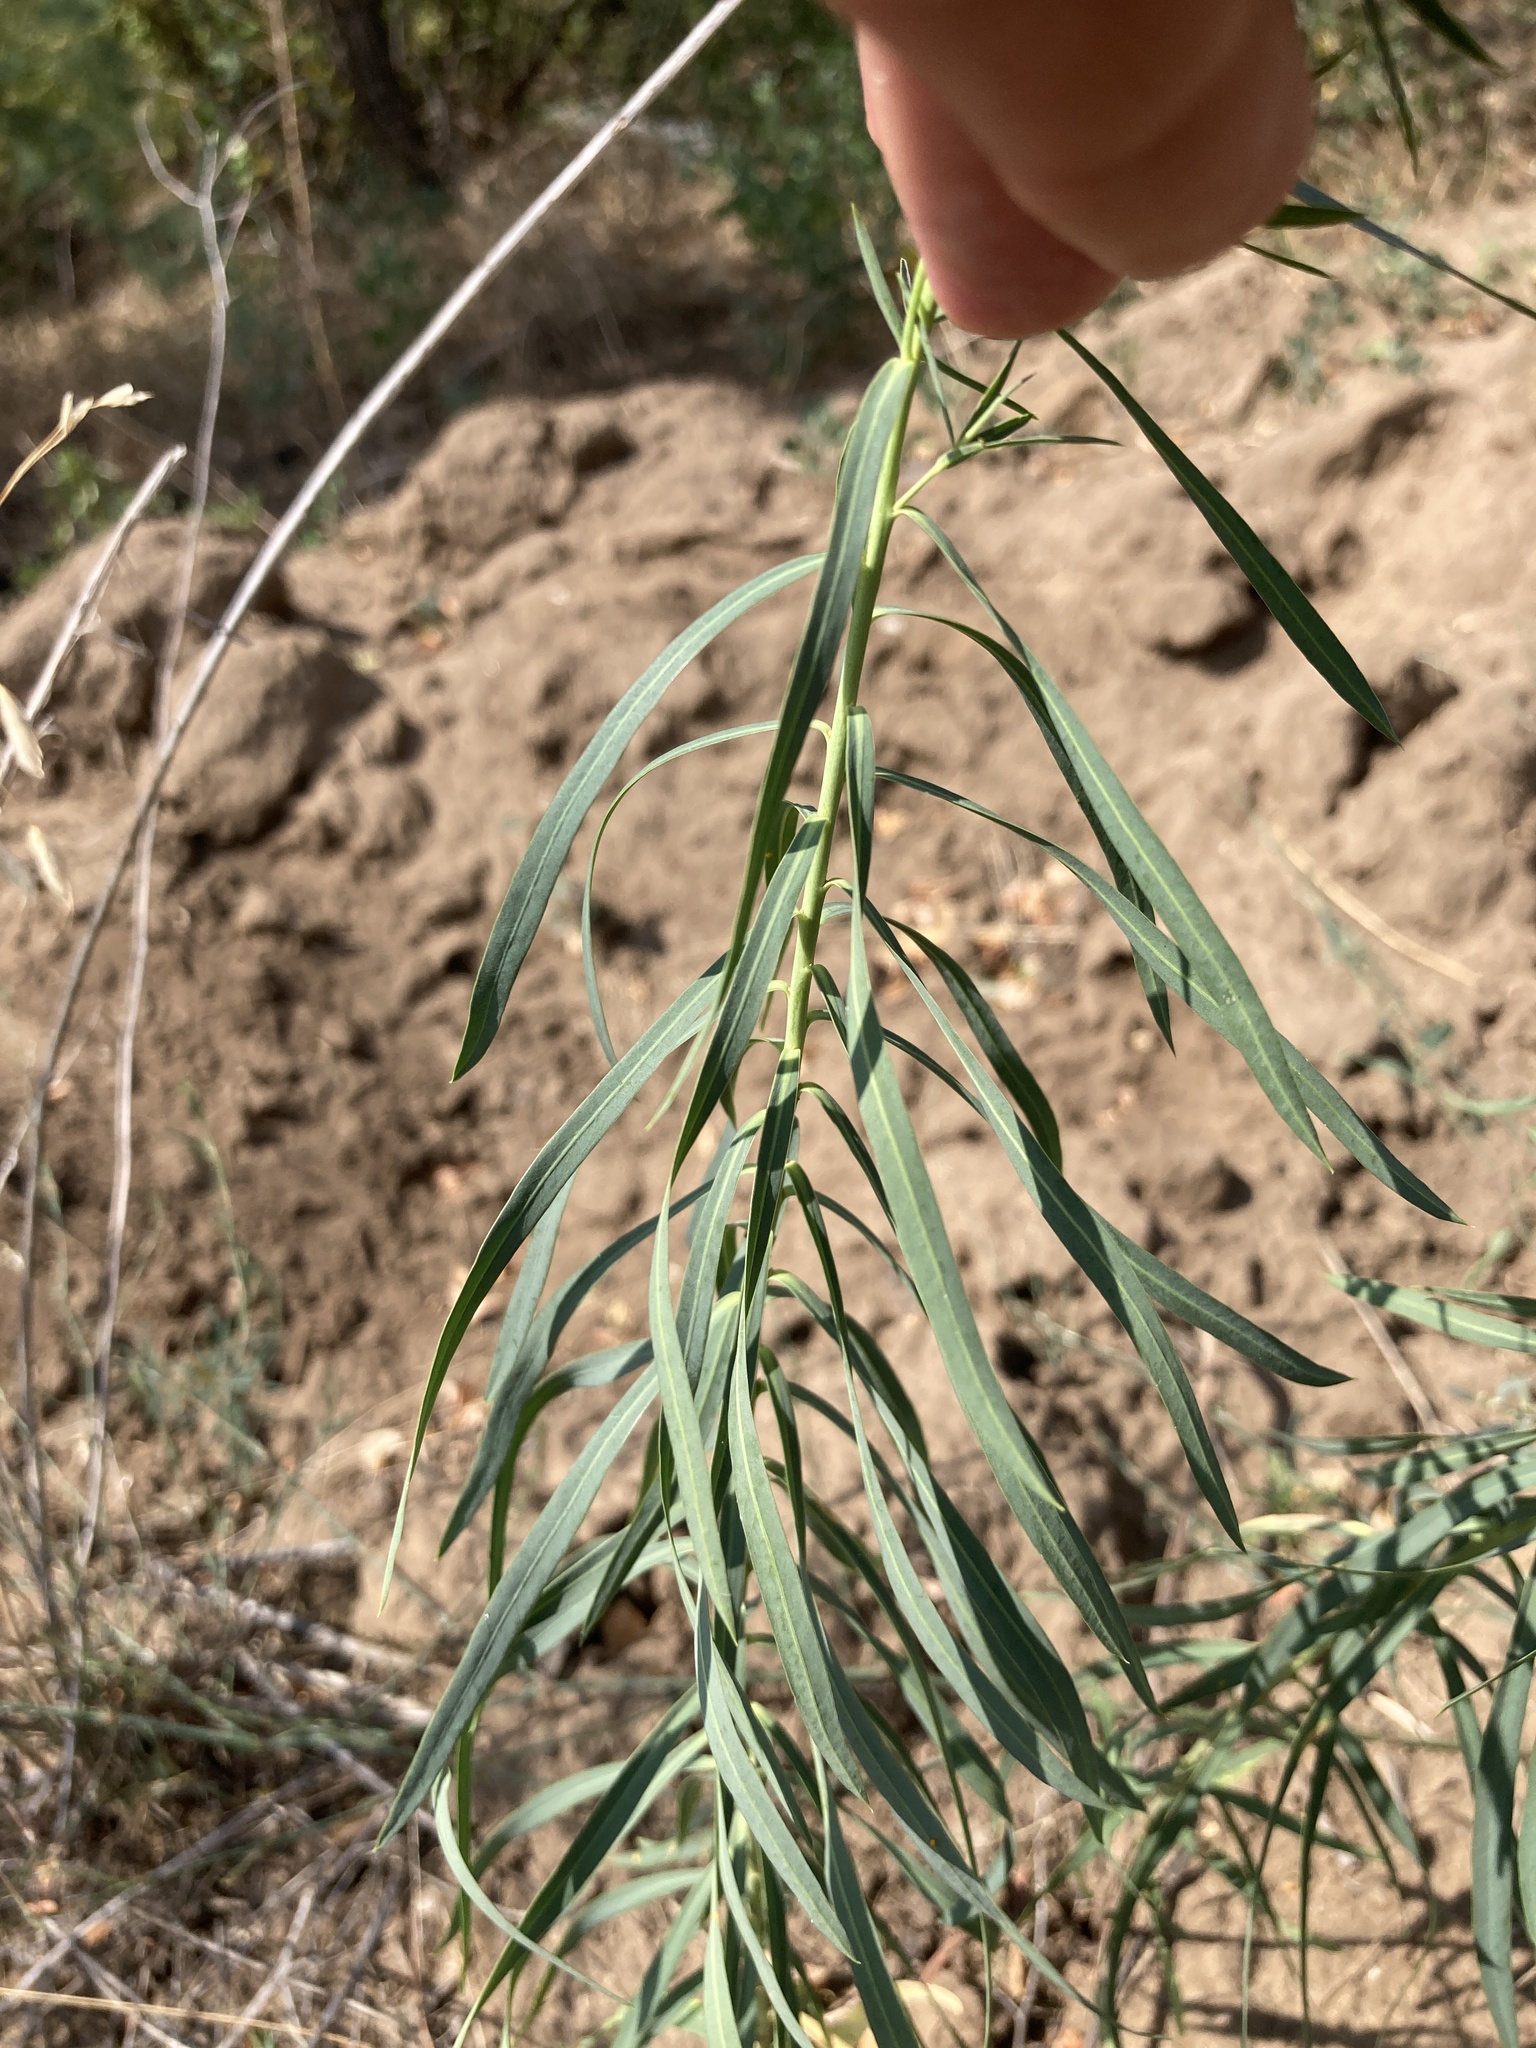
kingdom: Plantae
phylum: Tracheophyta
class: Magnoliopsida
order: Malpighiales
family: Euphorbiaceae
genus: Euphorbia
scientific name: Euphorbia virgata
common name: Leafy spurge
